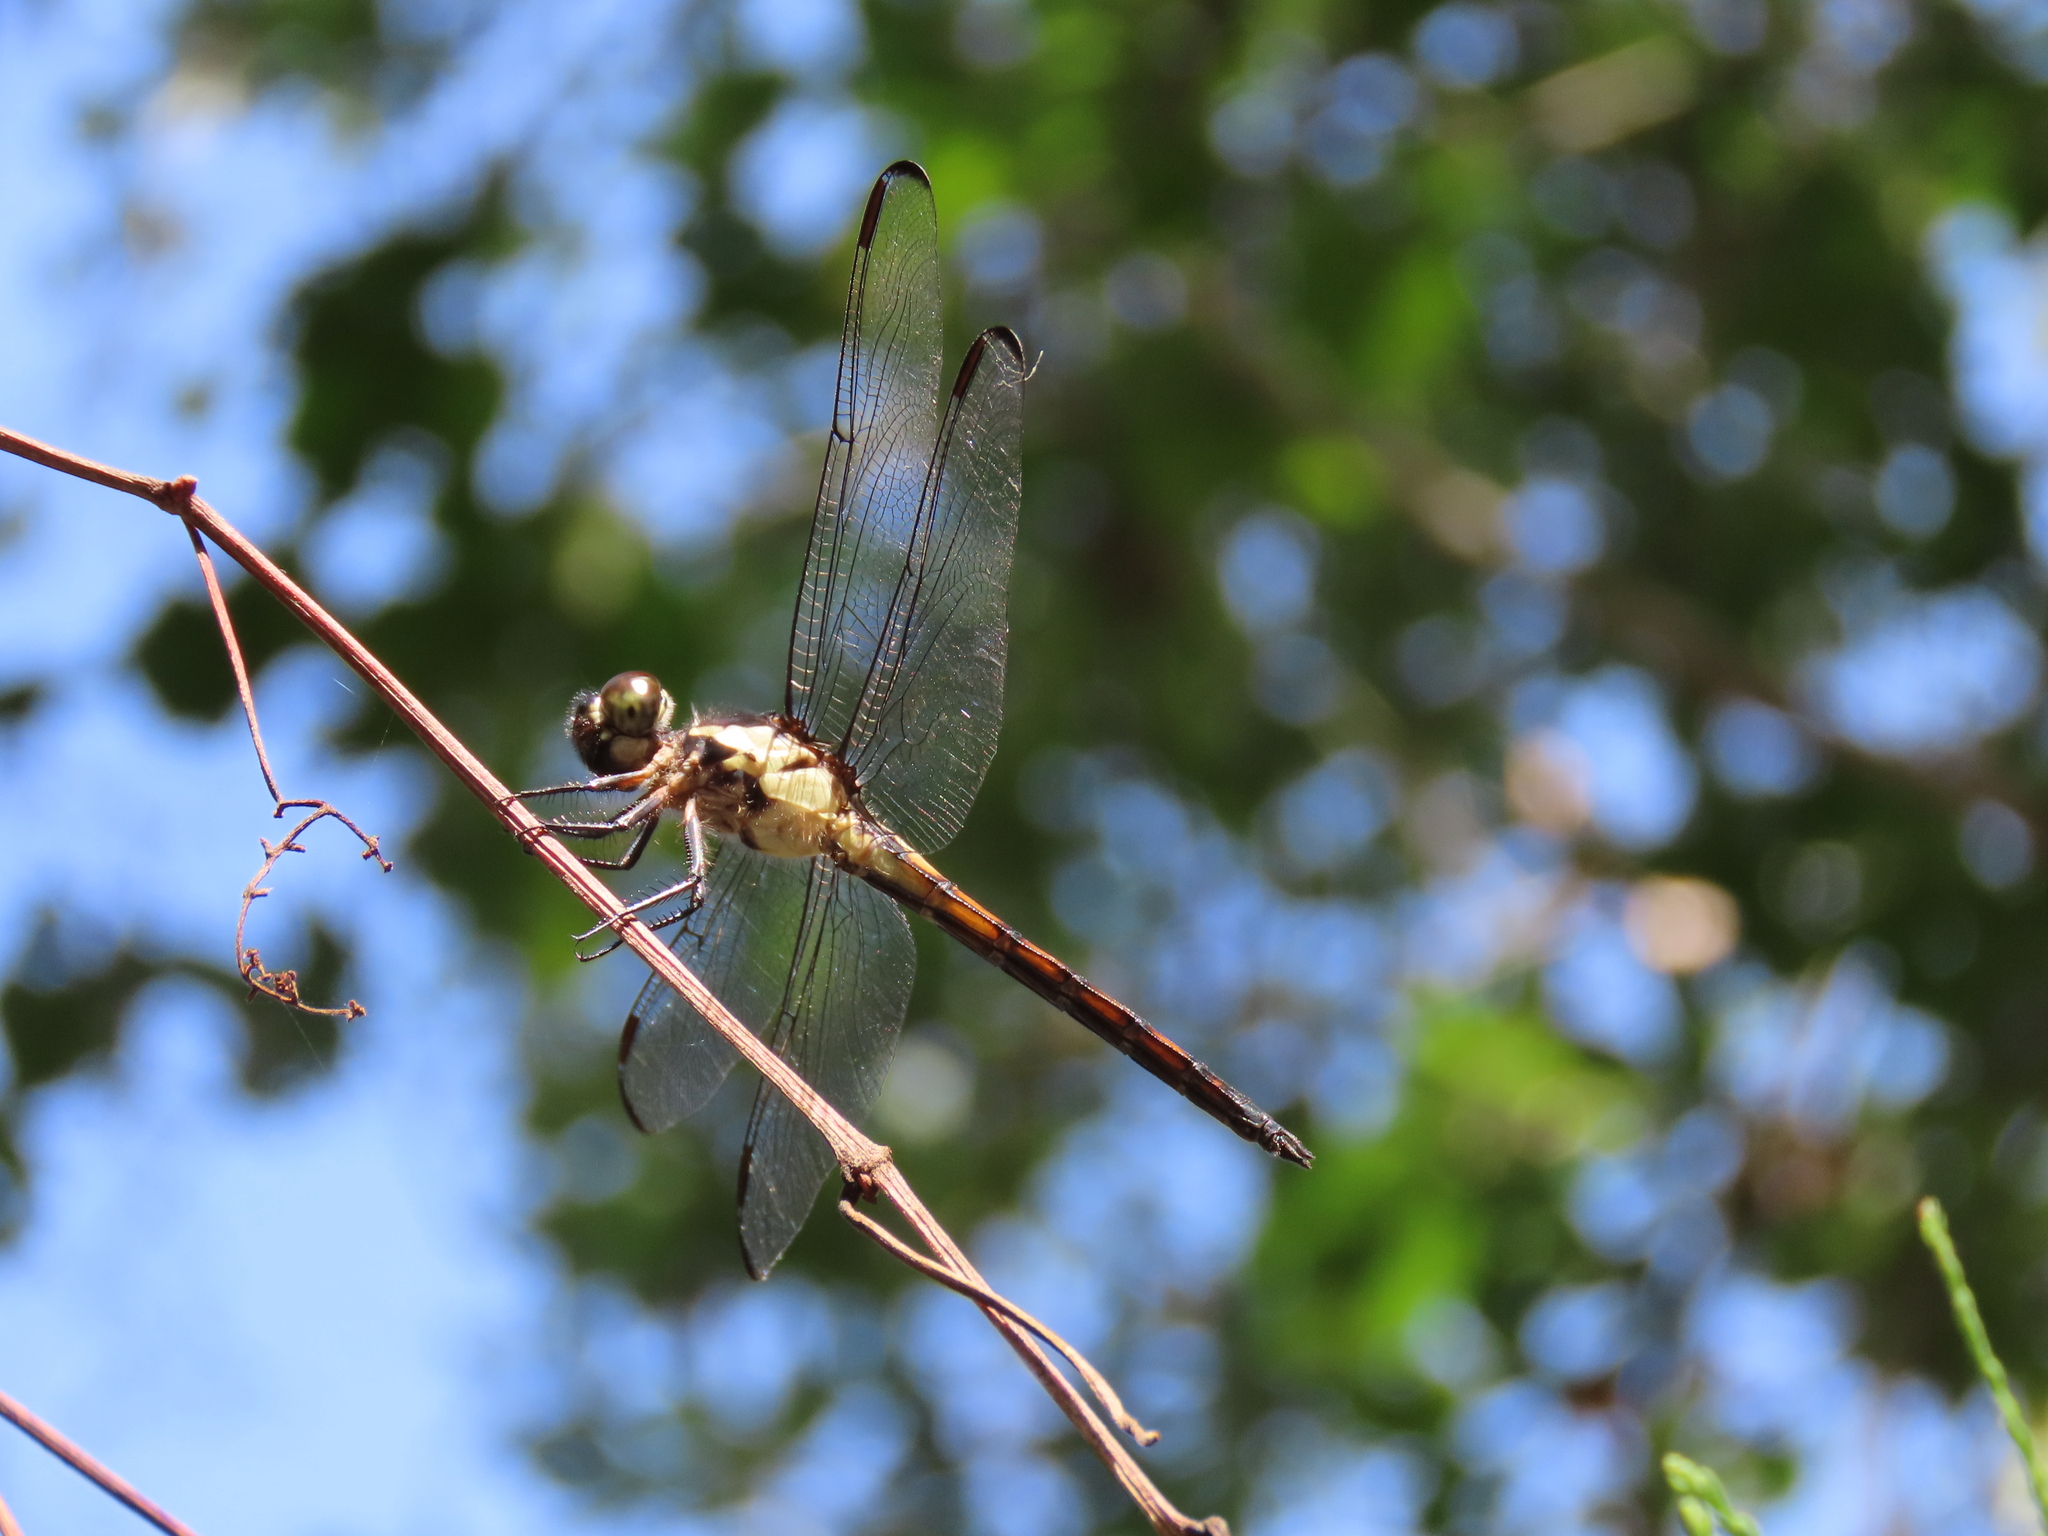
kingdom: Animalia
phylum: Arthropoda
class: Insecta
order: Odonata
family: Libellulidae
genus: Libellula
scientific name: Libellula incesta
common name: Slaty skimmer
